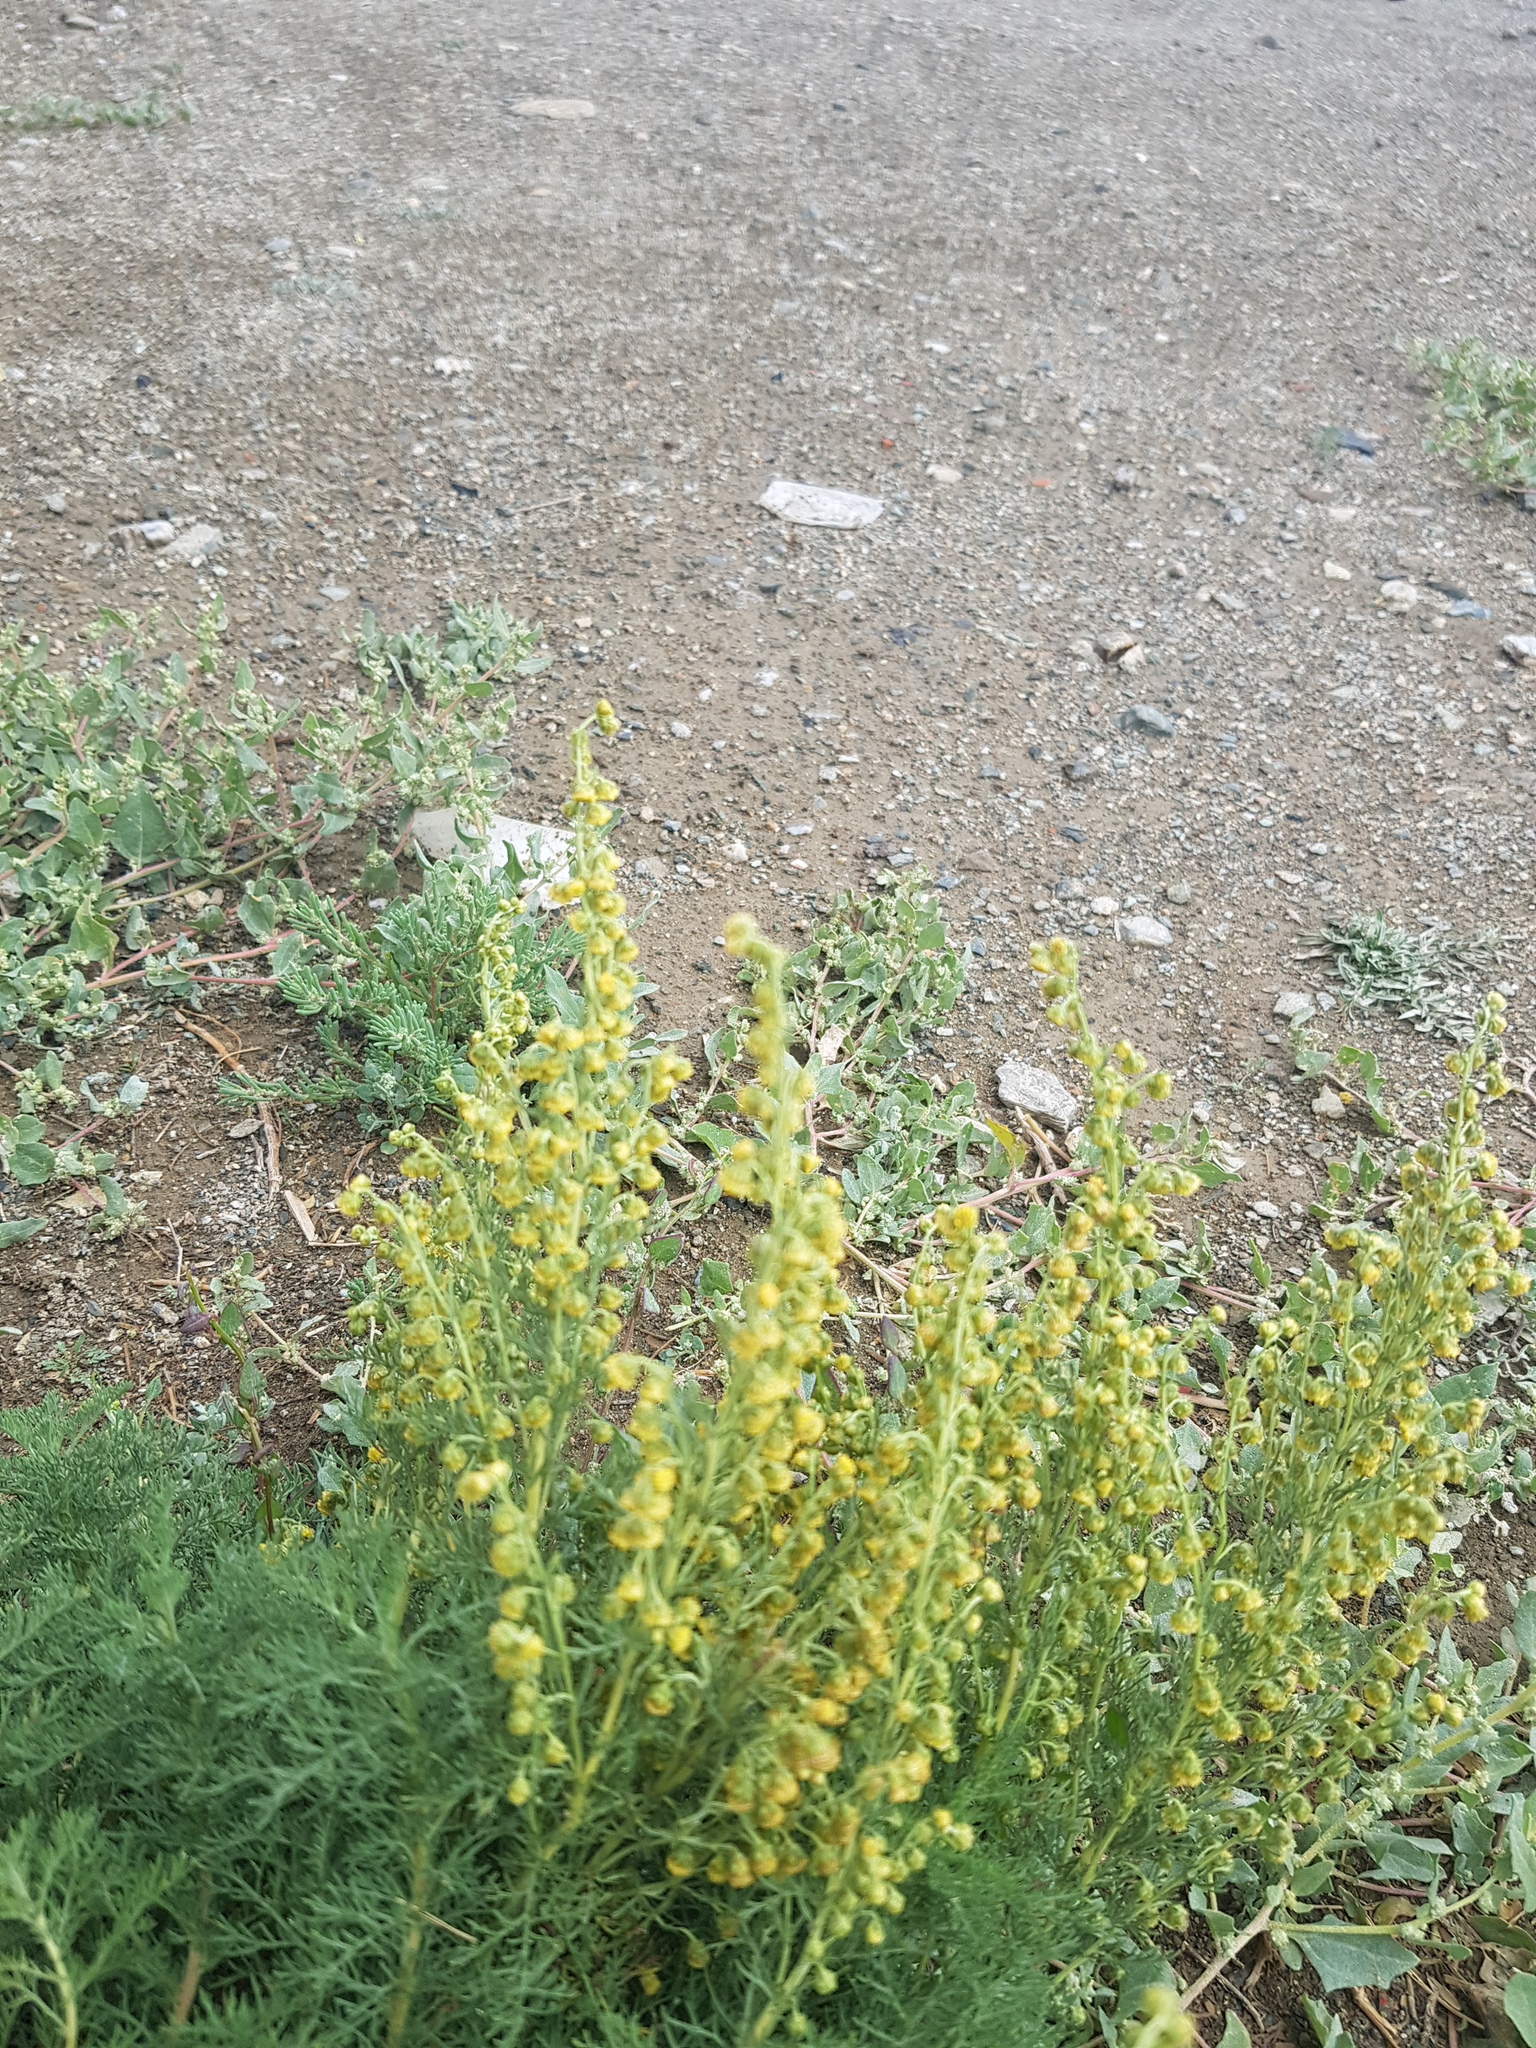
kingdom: Plantae
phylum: Tracheophyta
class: Magnoliopsida
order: Asterales
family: Asteraceae
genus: Artemisia
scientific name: Artemisia adamsii
